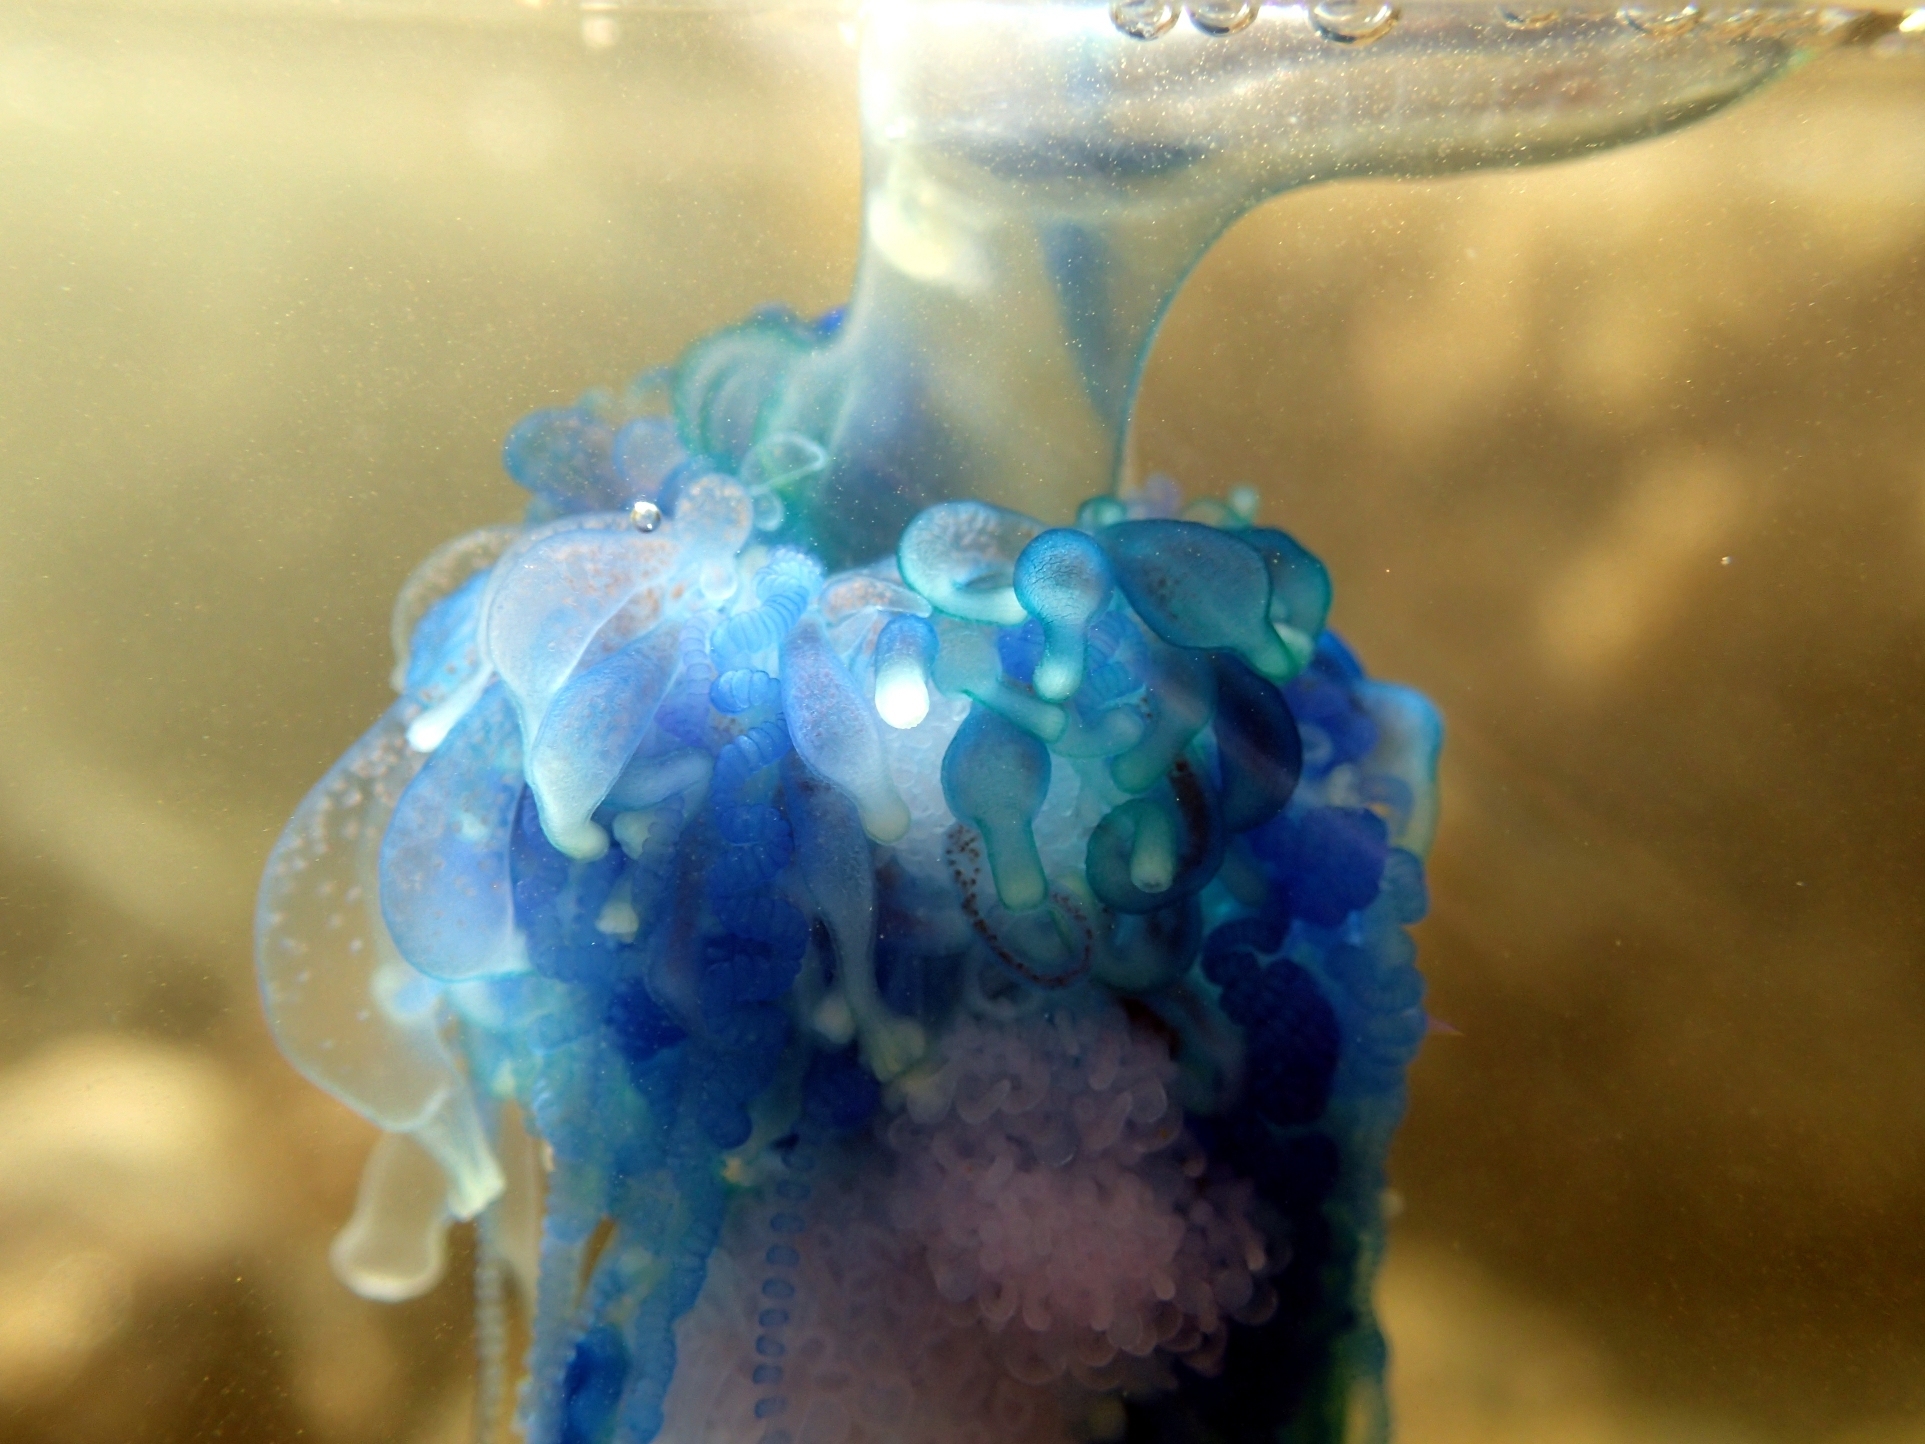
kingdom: Animalia
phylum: Cnidaria
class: Hydrozoa
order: Siphonophorae
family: Physaliidae
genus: Physalia
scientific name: Physalia physalis
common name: Portuguese man-of-war
